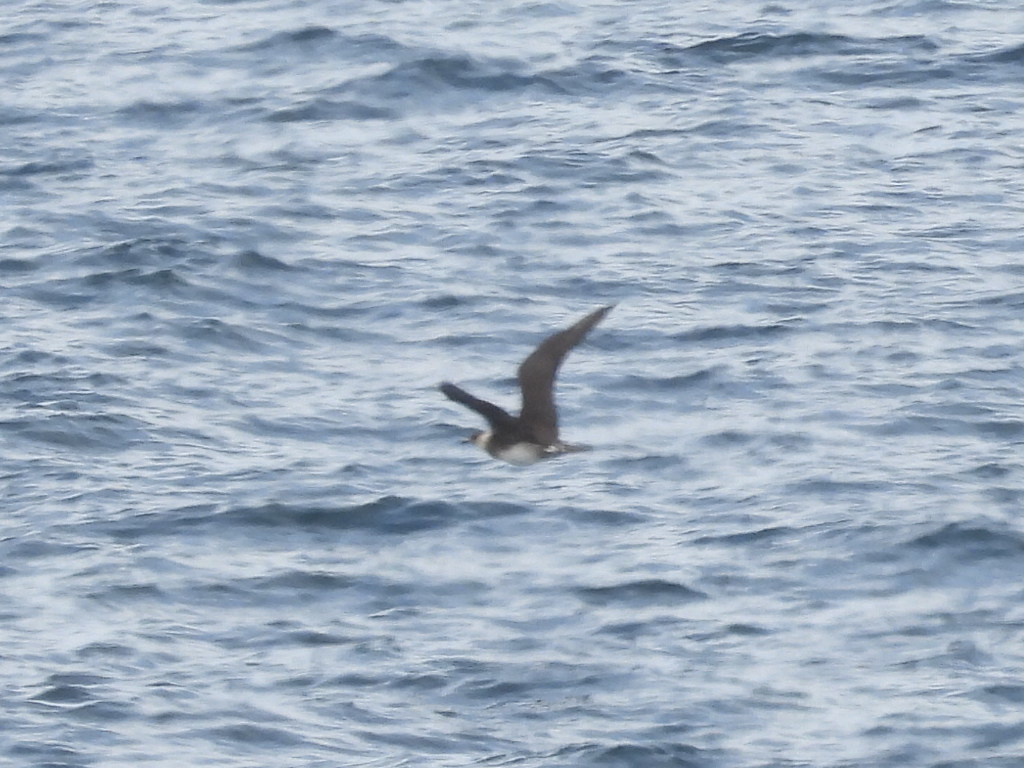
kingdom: Animalia
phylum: Chordata
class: Aves
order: Charadriiformes
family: Stercorariidae
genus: Stercorarius
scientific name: Stercorarius parasiticus
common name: Parasitic jaeger
